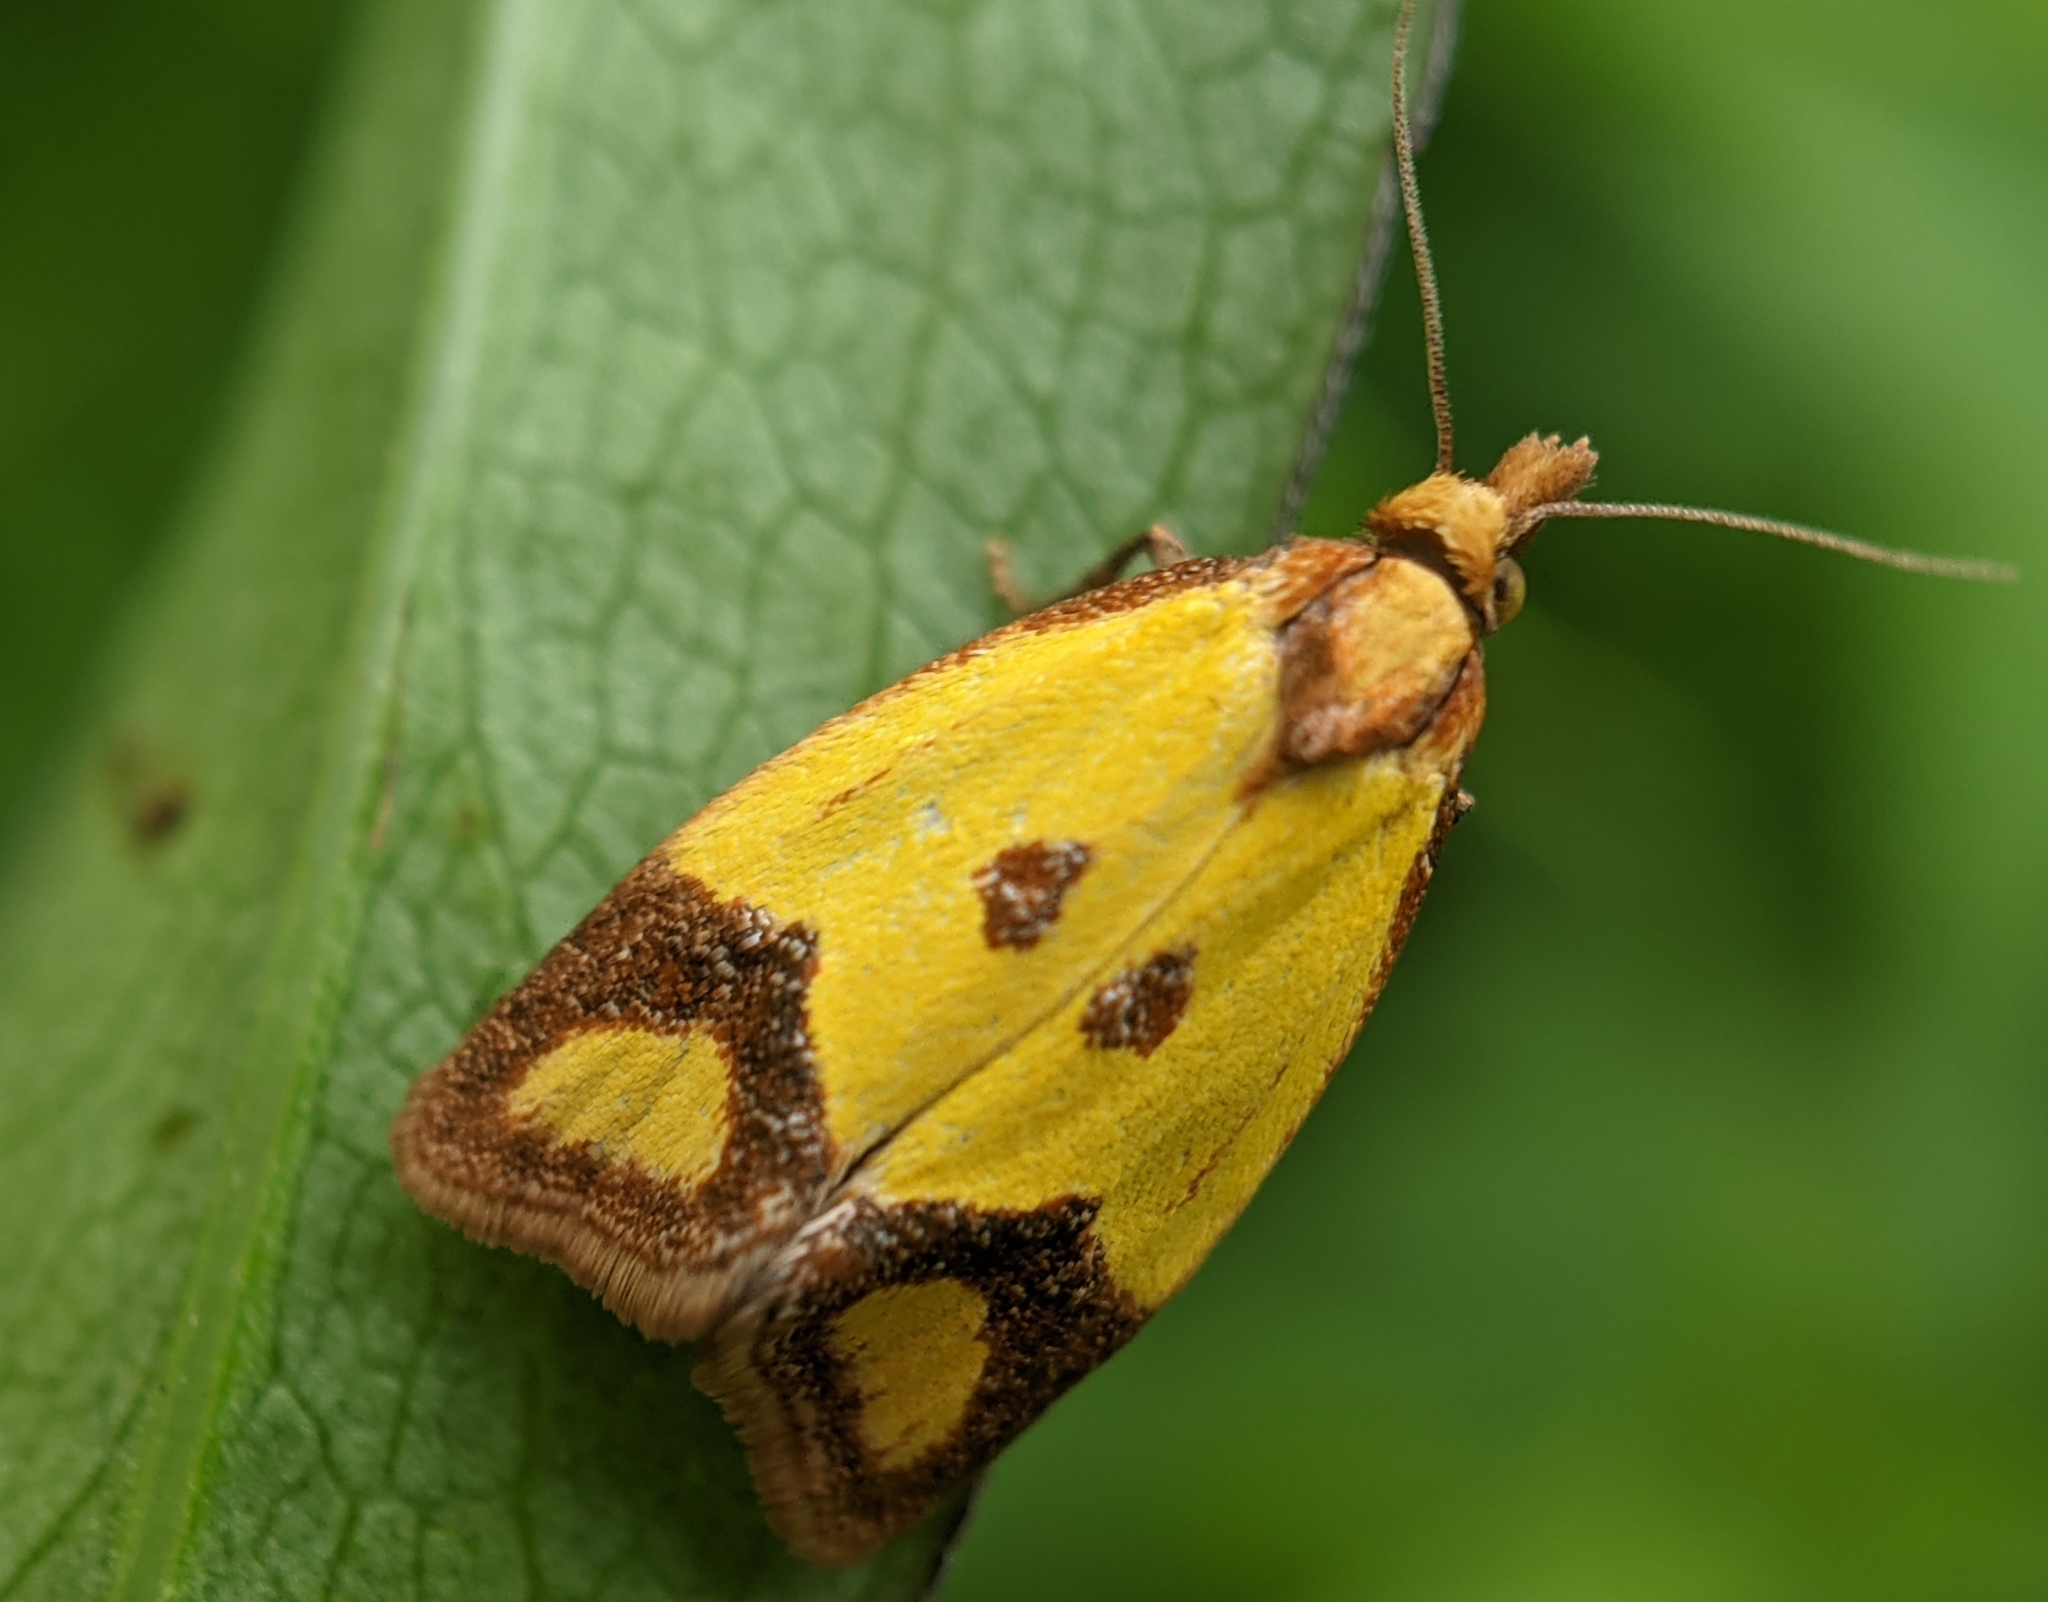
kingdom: Animalia
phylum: Arthropoda
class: Insecta
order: Lepidoptera
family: Tortricidae
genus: Agapeta
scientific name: Agapeta zoegana
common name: Sulfur knapweed root moth
